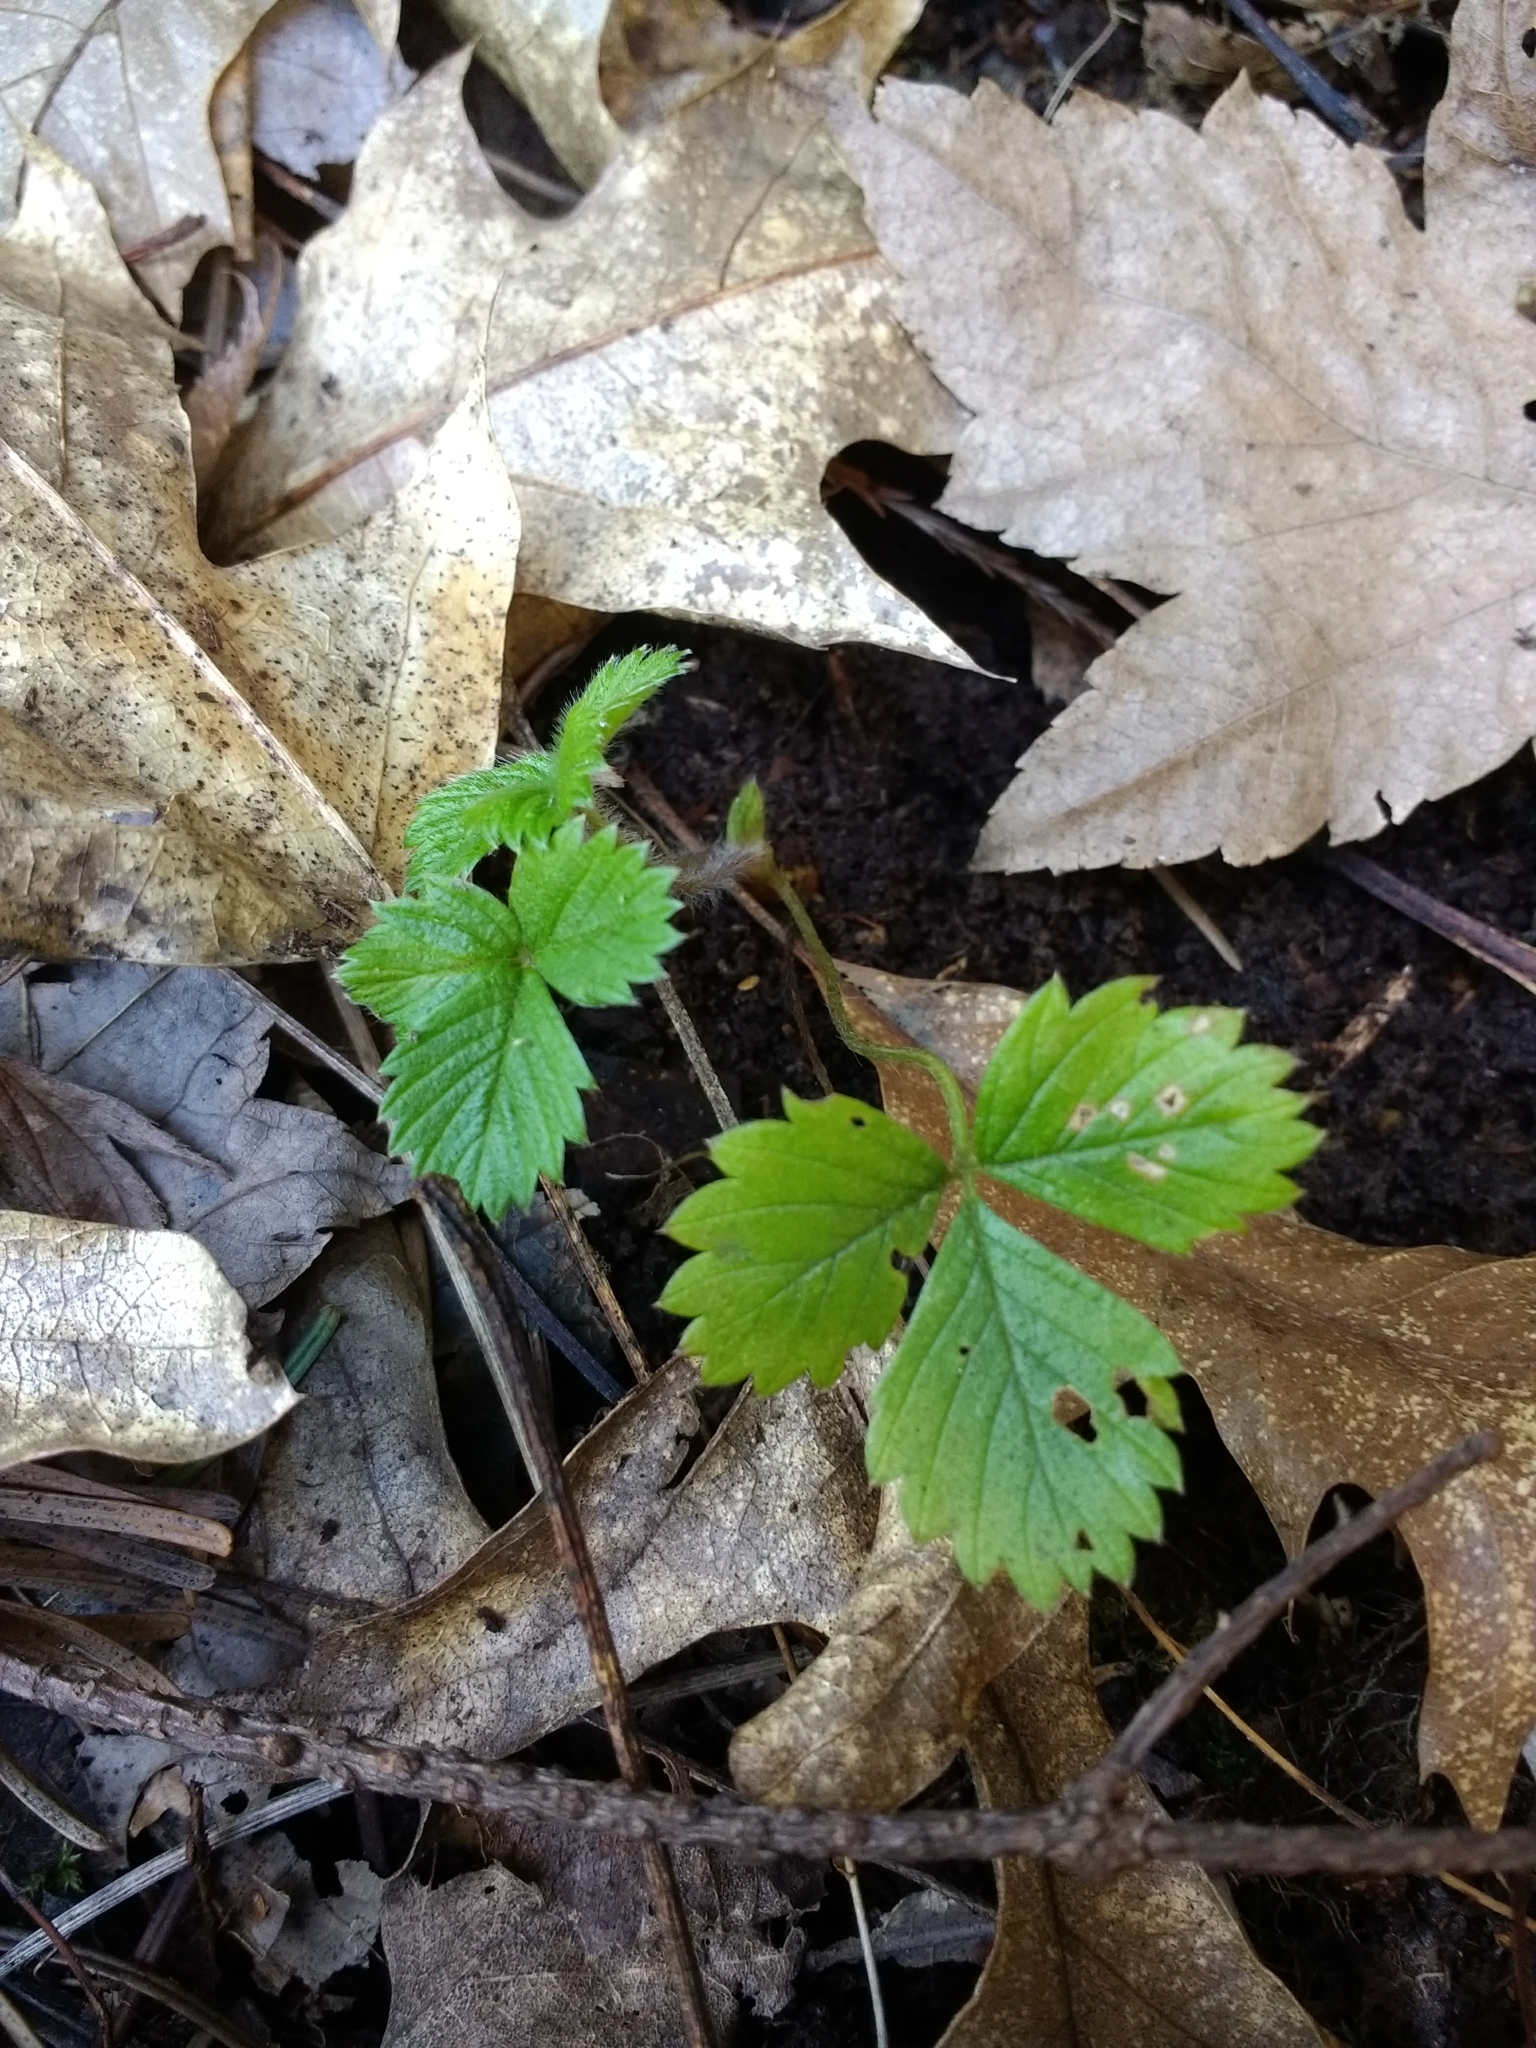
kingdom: Plantae
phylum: Tracheophyta
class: Magnoliopsida
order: Rosales
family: Rosaceae
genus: Fragaria
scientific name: Fragaria vesca
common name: Wild strawberry
